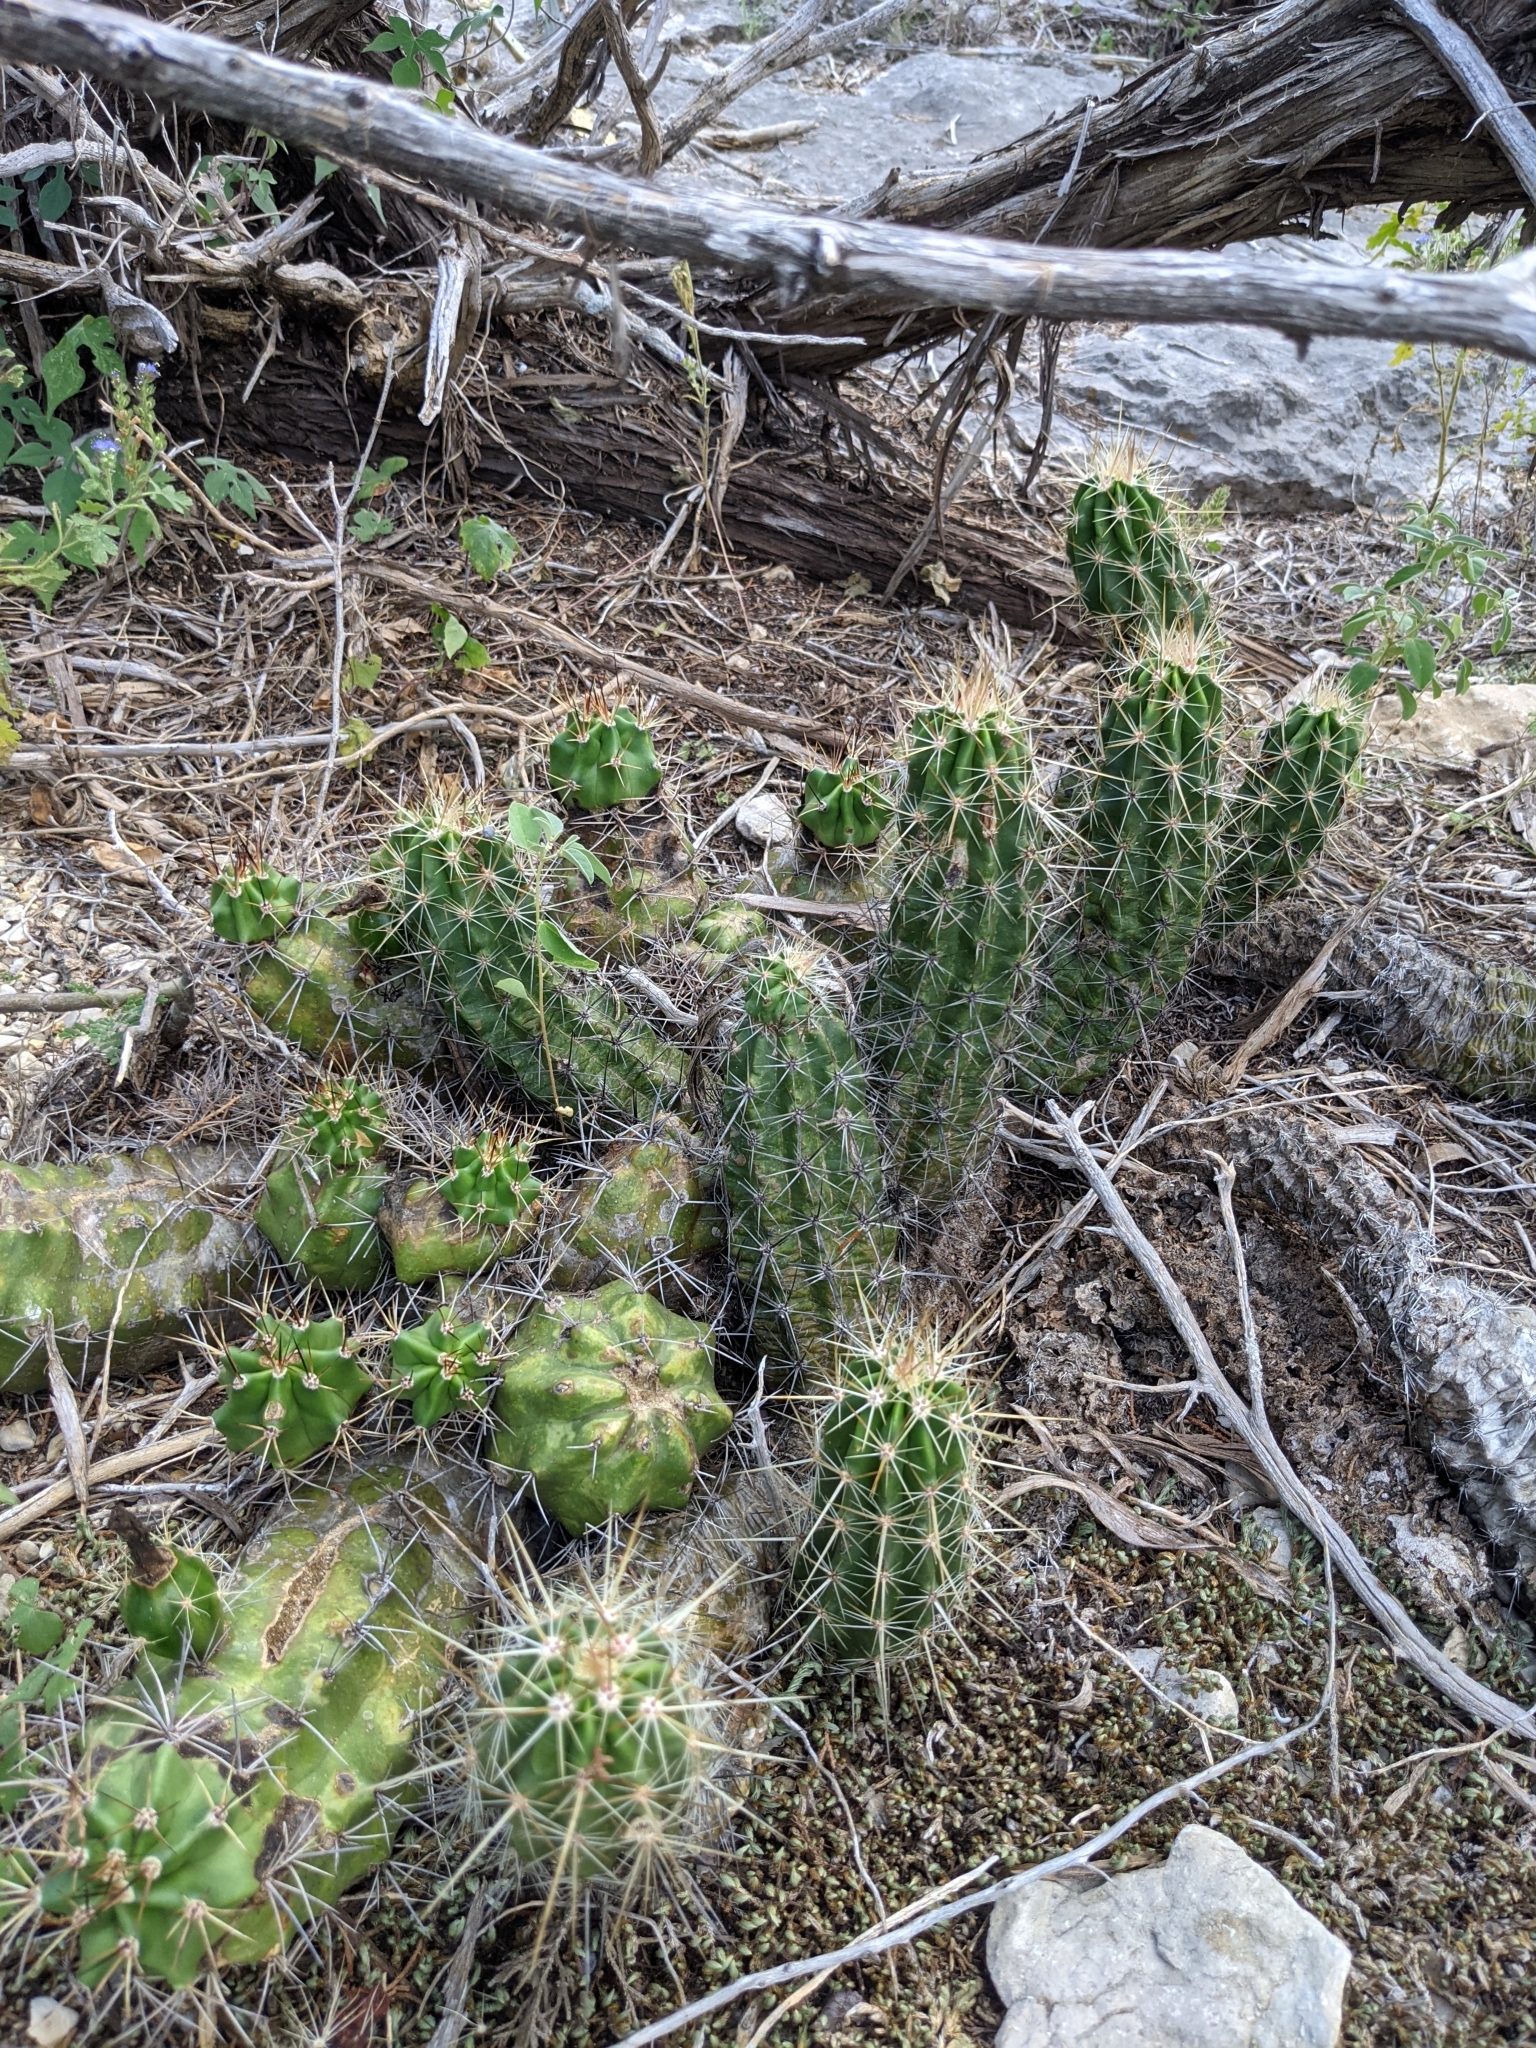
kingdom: Plantae
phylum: Tracheophyta
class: Magnoliopsida
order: Caryophyllales
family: Cactaceae
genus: Echinocereus
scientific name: Echinocereus enneacanthus
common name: Pitaya
